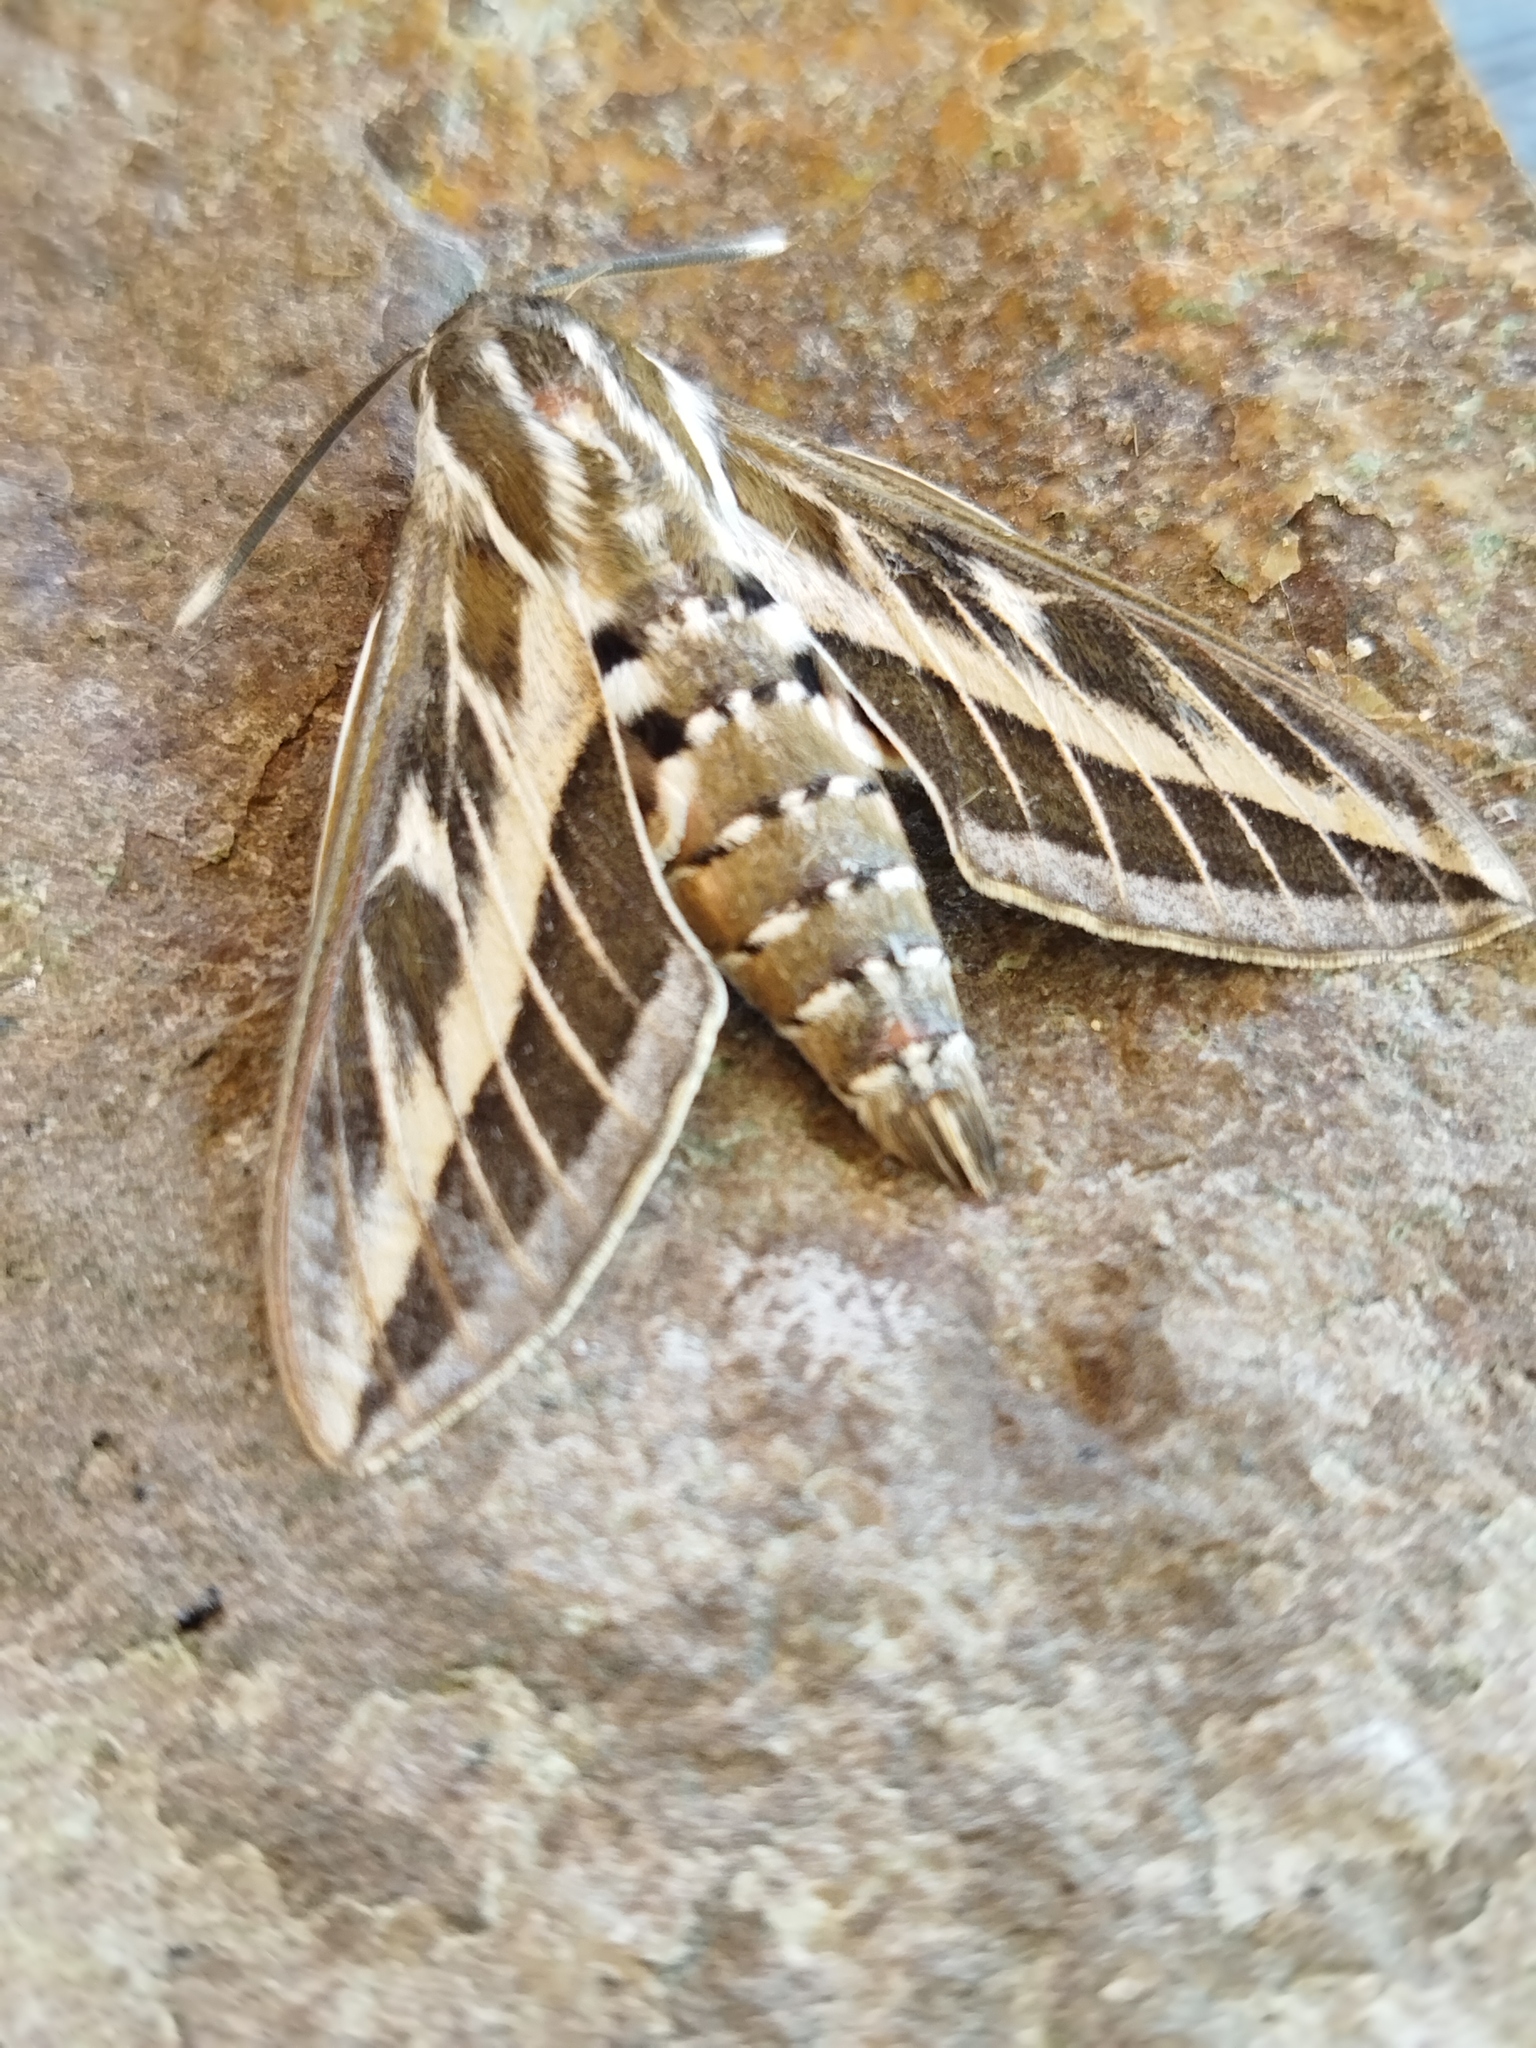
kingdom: Animalia
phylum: Arthropoda
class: Insecta
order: Lepidoptera
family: Sphingidae
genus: Hyles
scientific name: Hyles livornica
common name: Striped hawk-moth
